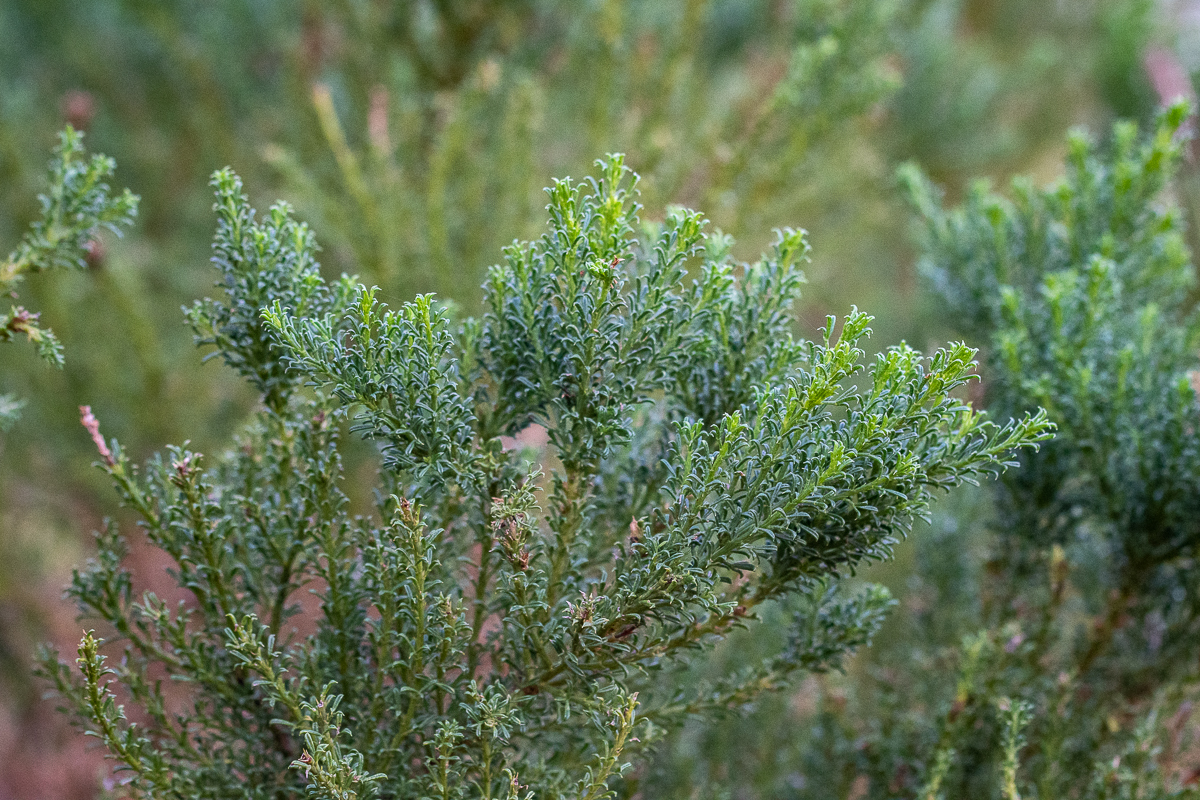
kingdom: Plantae
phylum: Tracheophyta
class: Magnoliopsida
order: Fabales
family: Fabaceae
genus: Psoralea
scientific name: Psoralea aculeata
